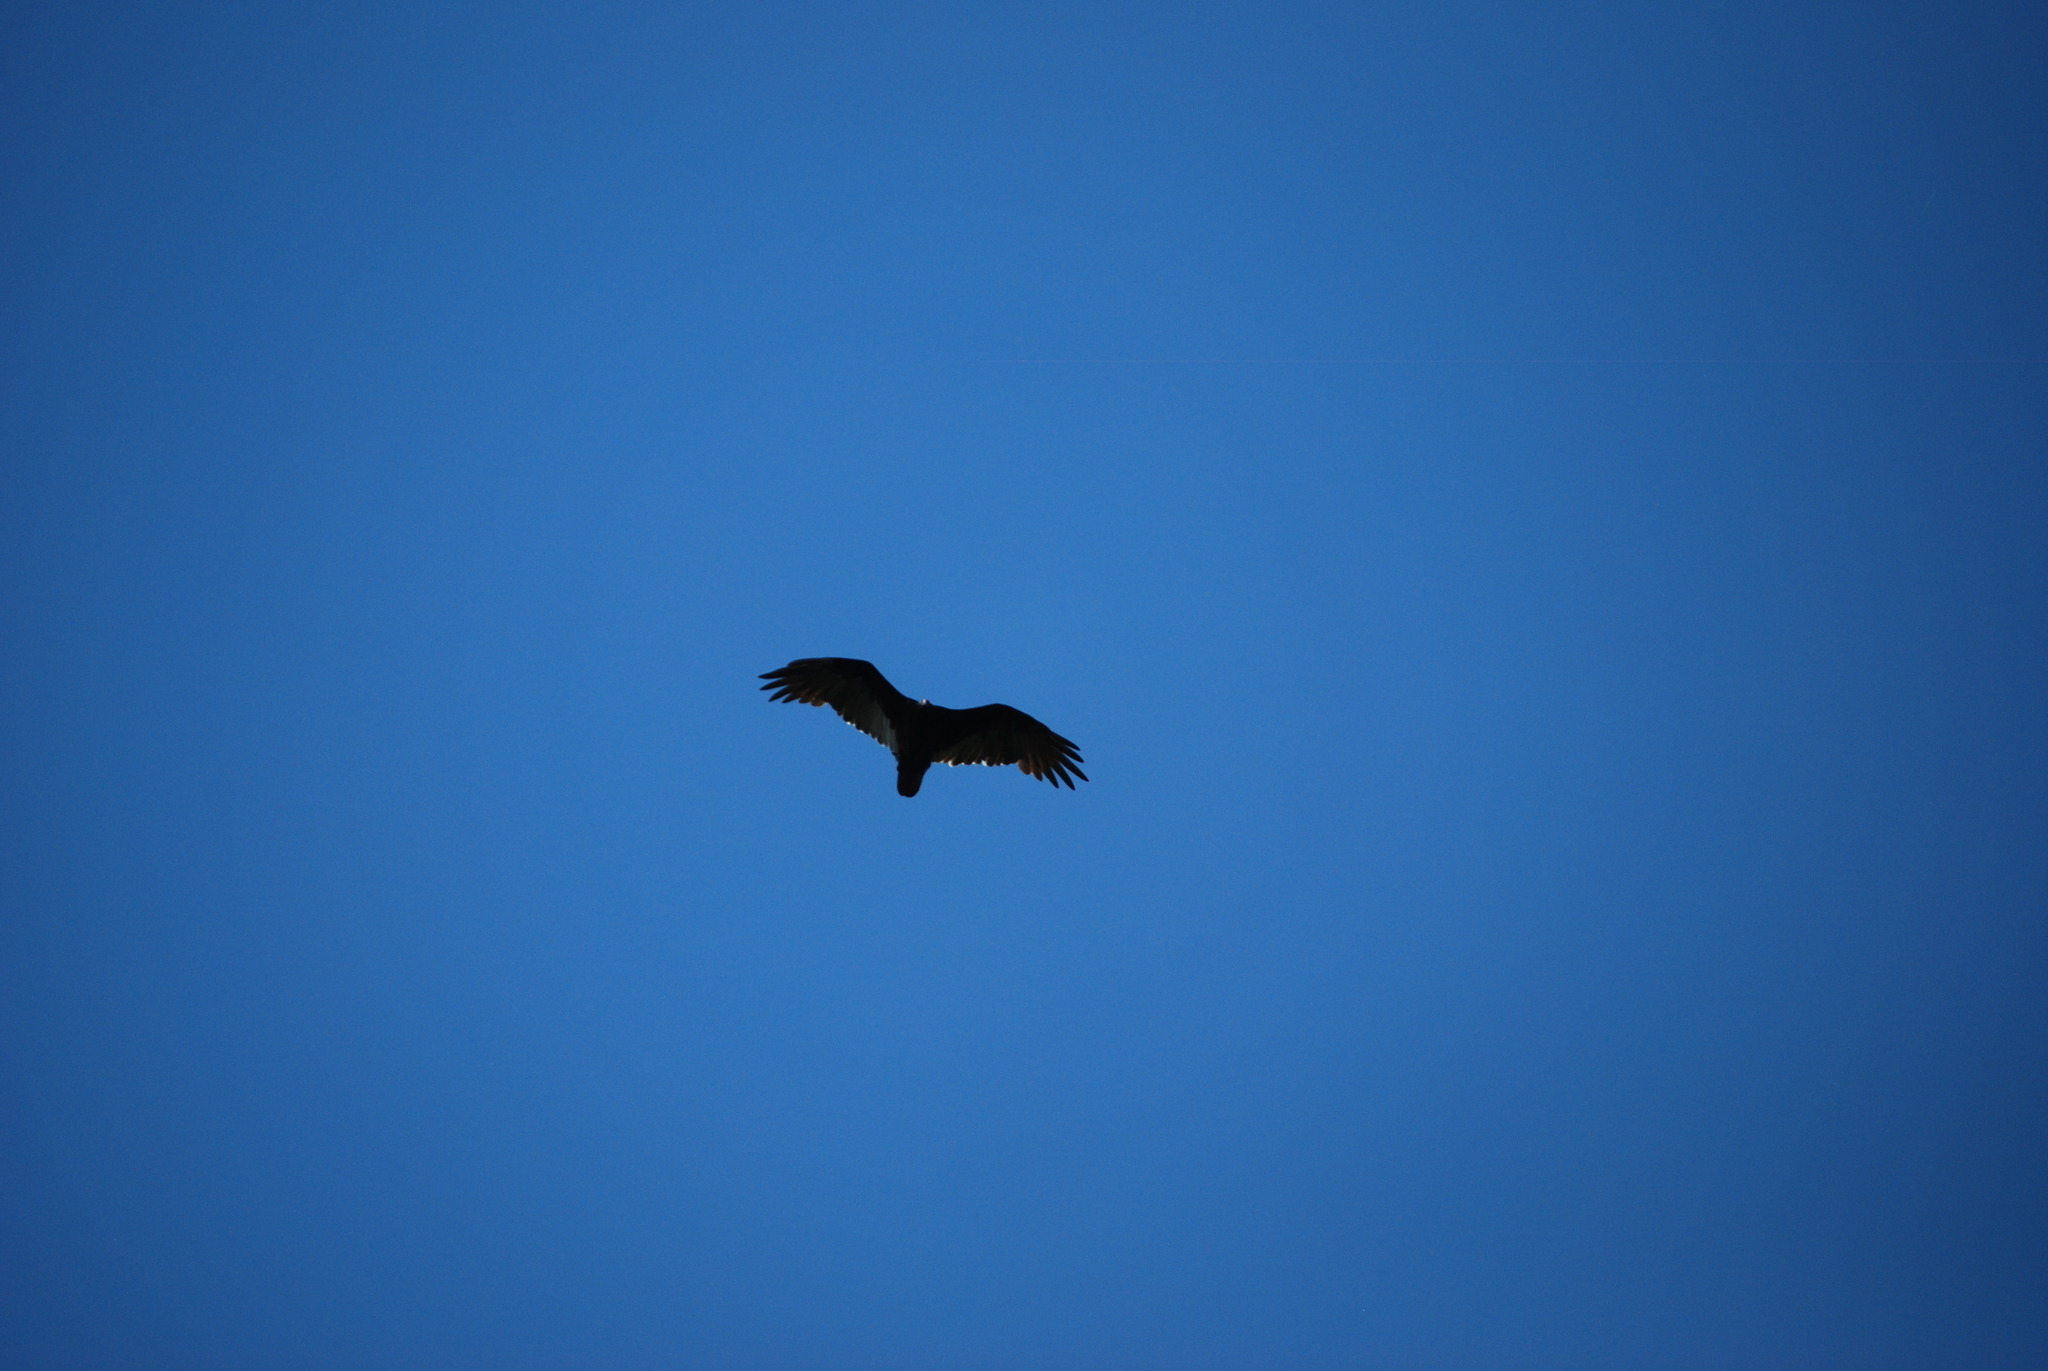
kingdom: Animalia
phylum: Chordata
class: Aves
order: Accipitriformes
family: Cathartidae
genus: Cathartes
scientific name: Cathartes aura
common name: Turkey vulture
